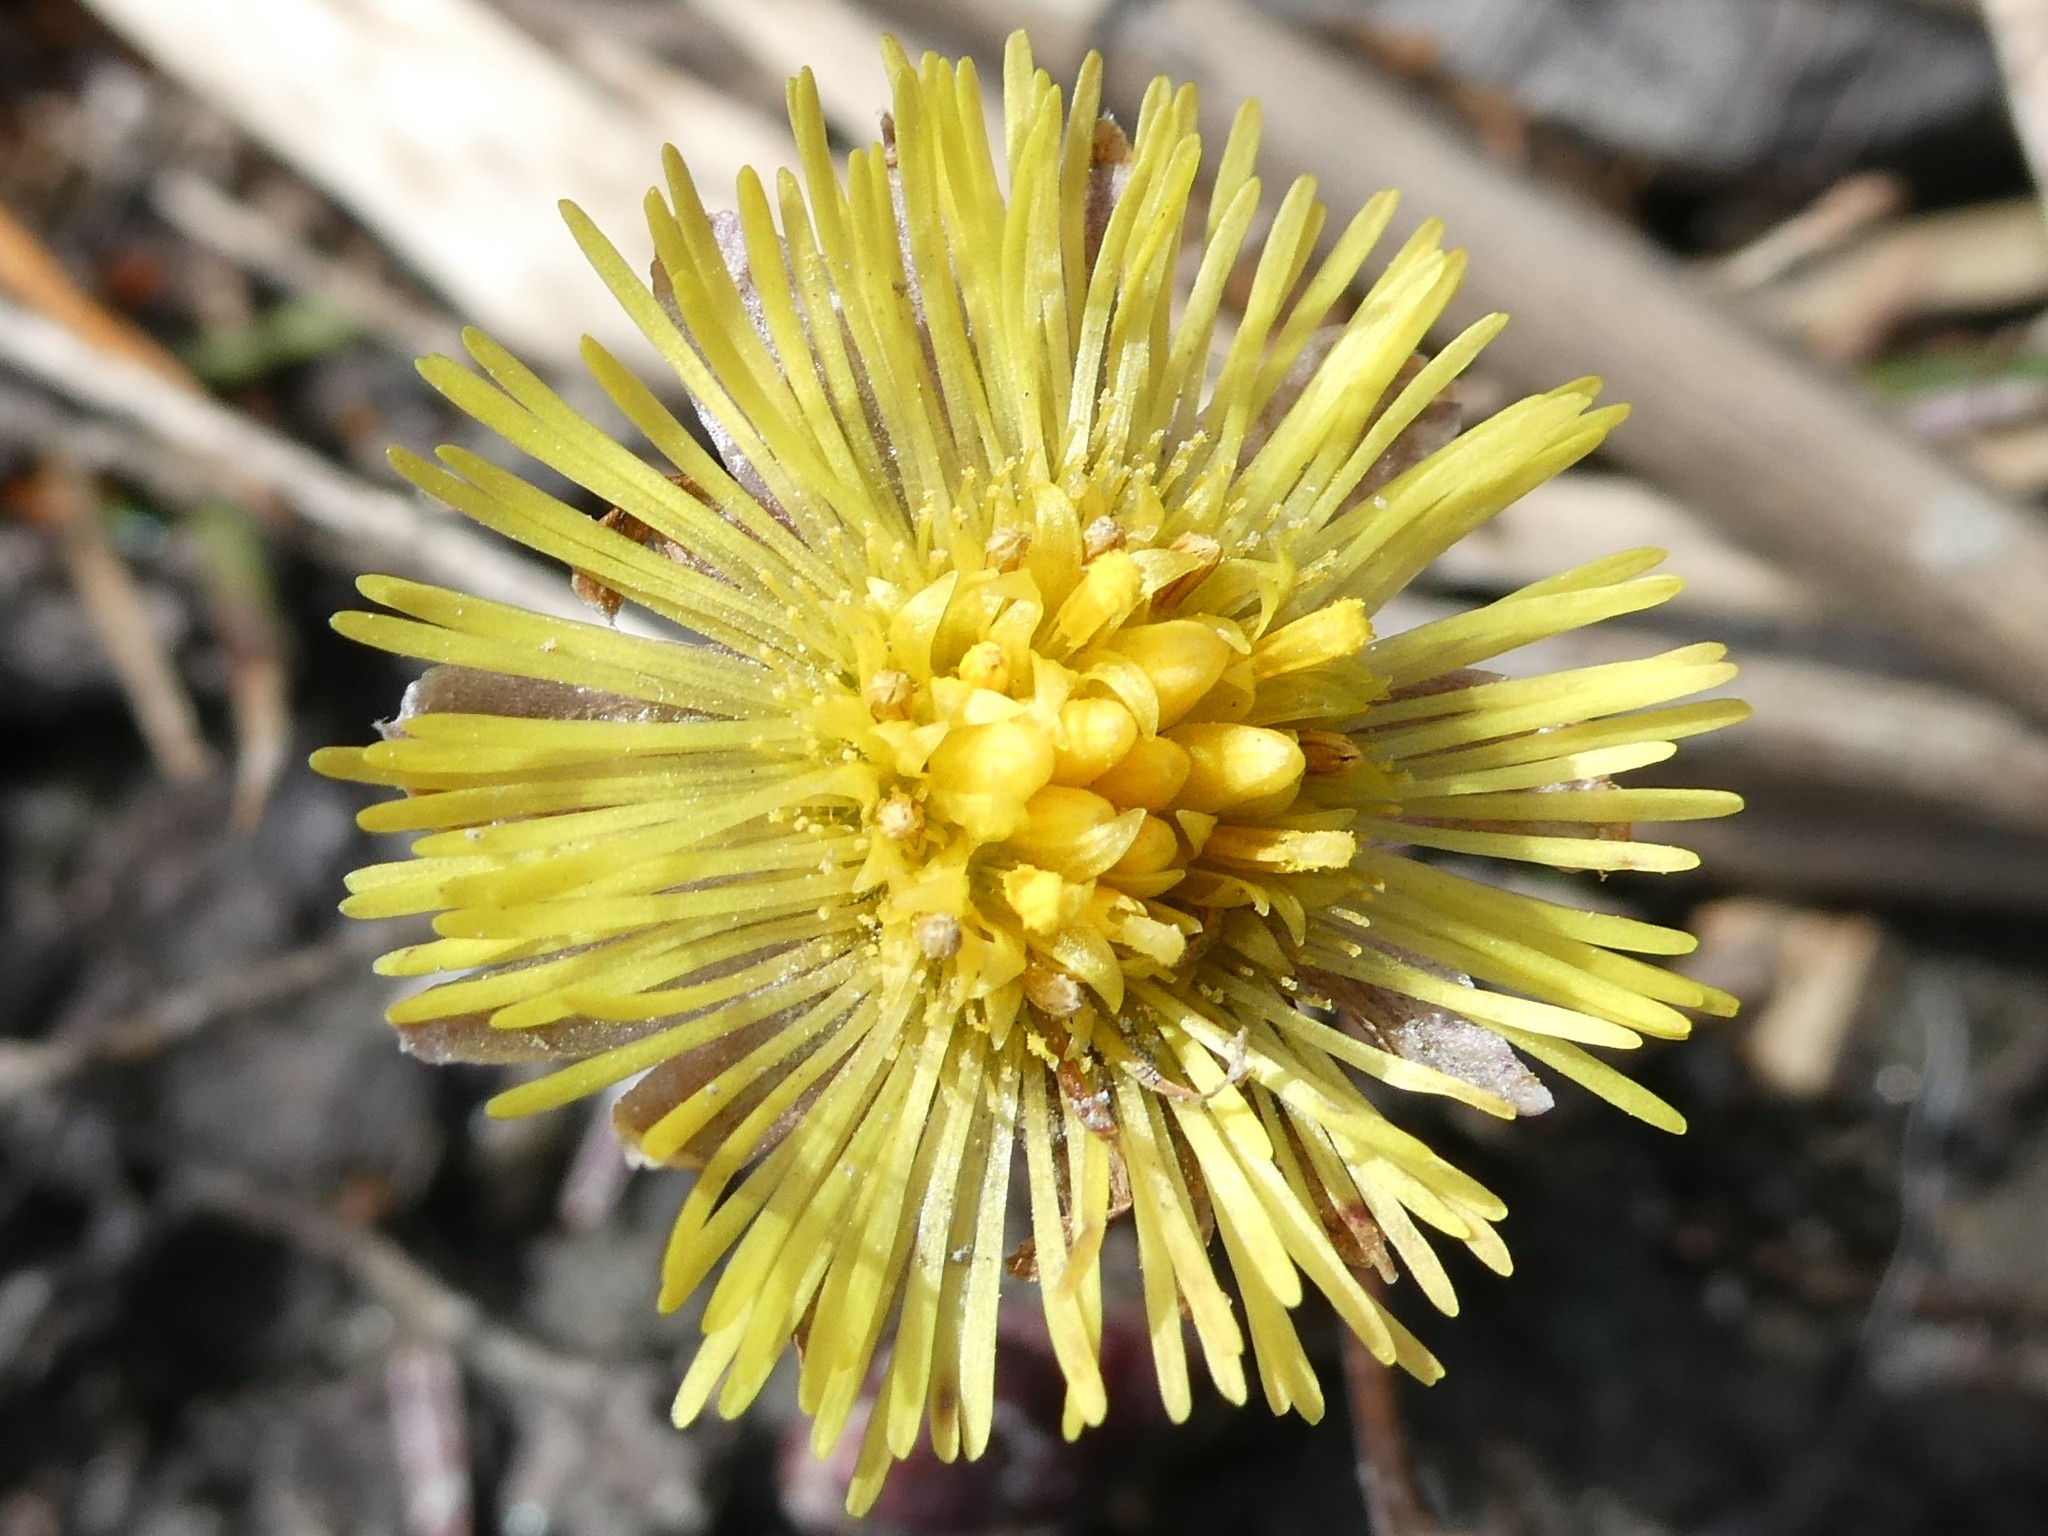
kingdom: Plantae
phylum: Tracheophyta
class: Magnoliopsida
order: Asterales
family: Asteraceae
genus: Tussilago
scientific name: Tussilago farfara
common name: Coltsfoot
